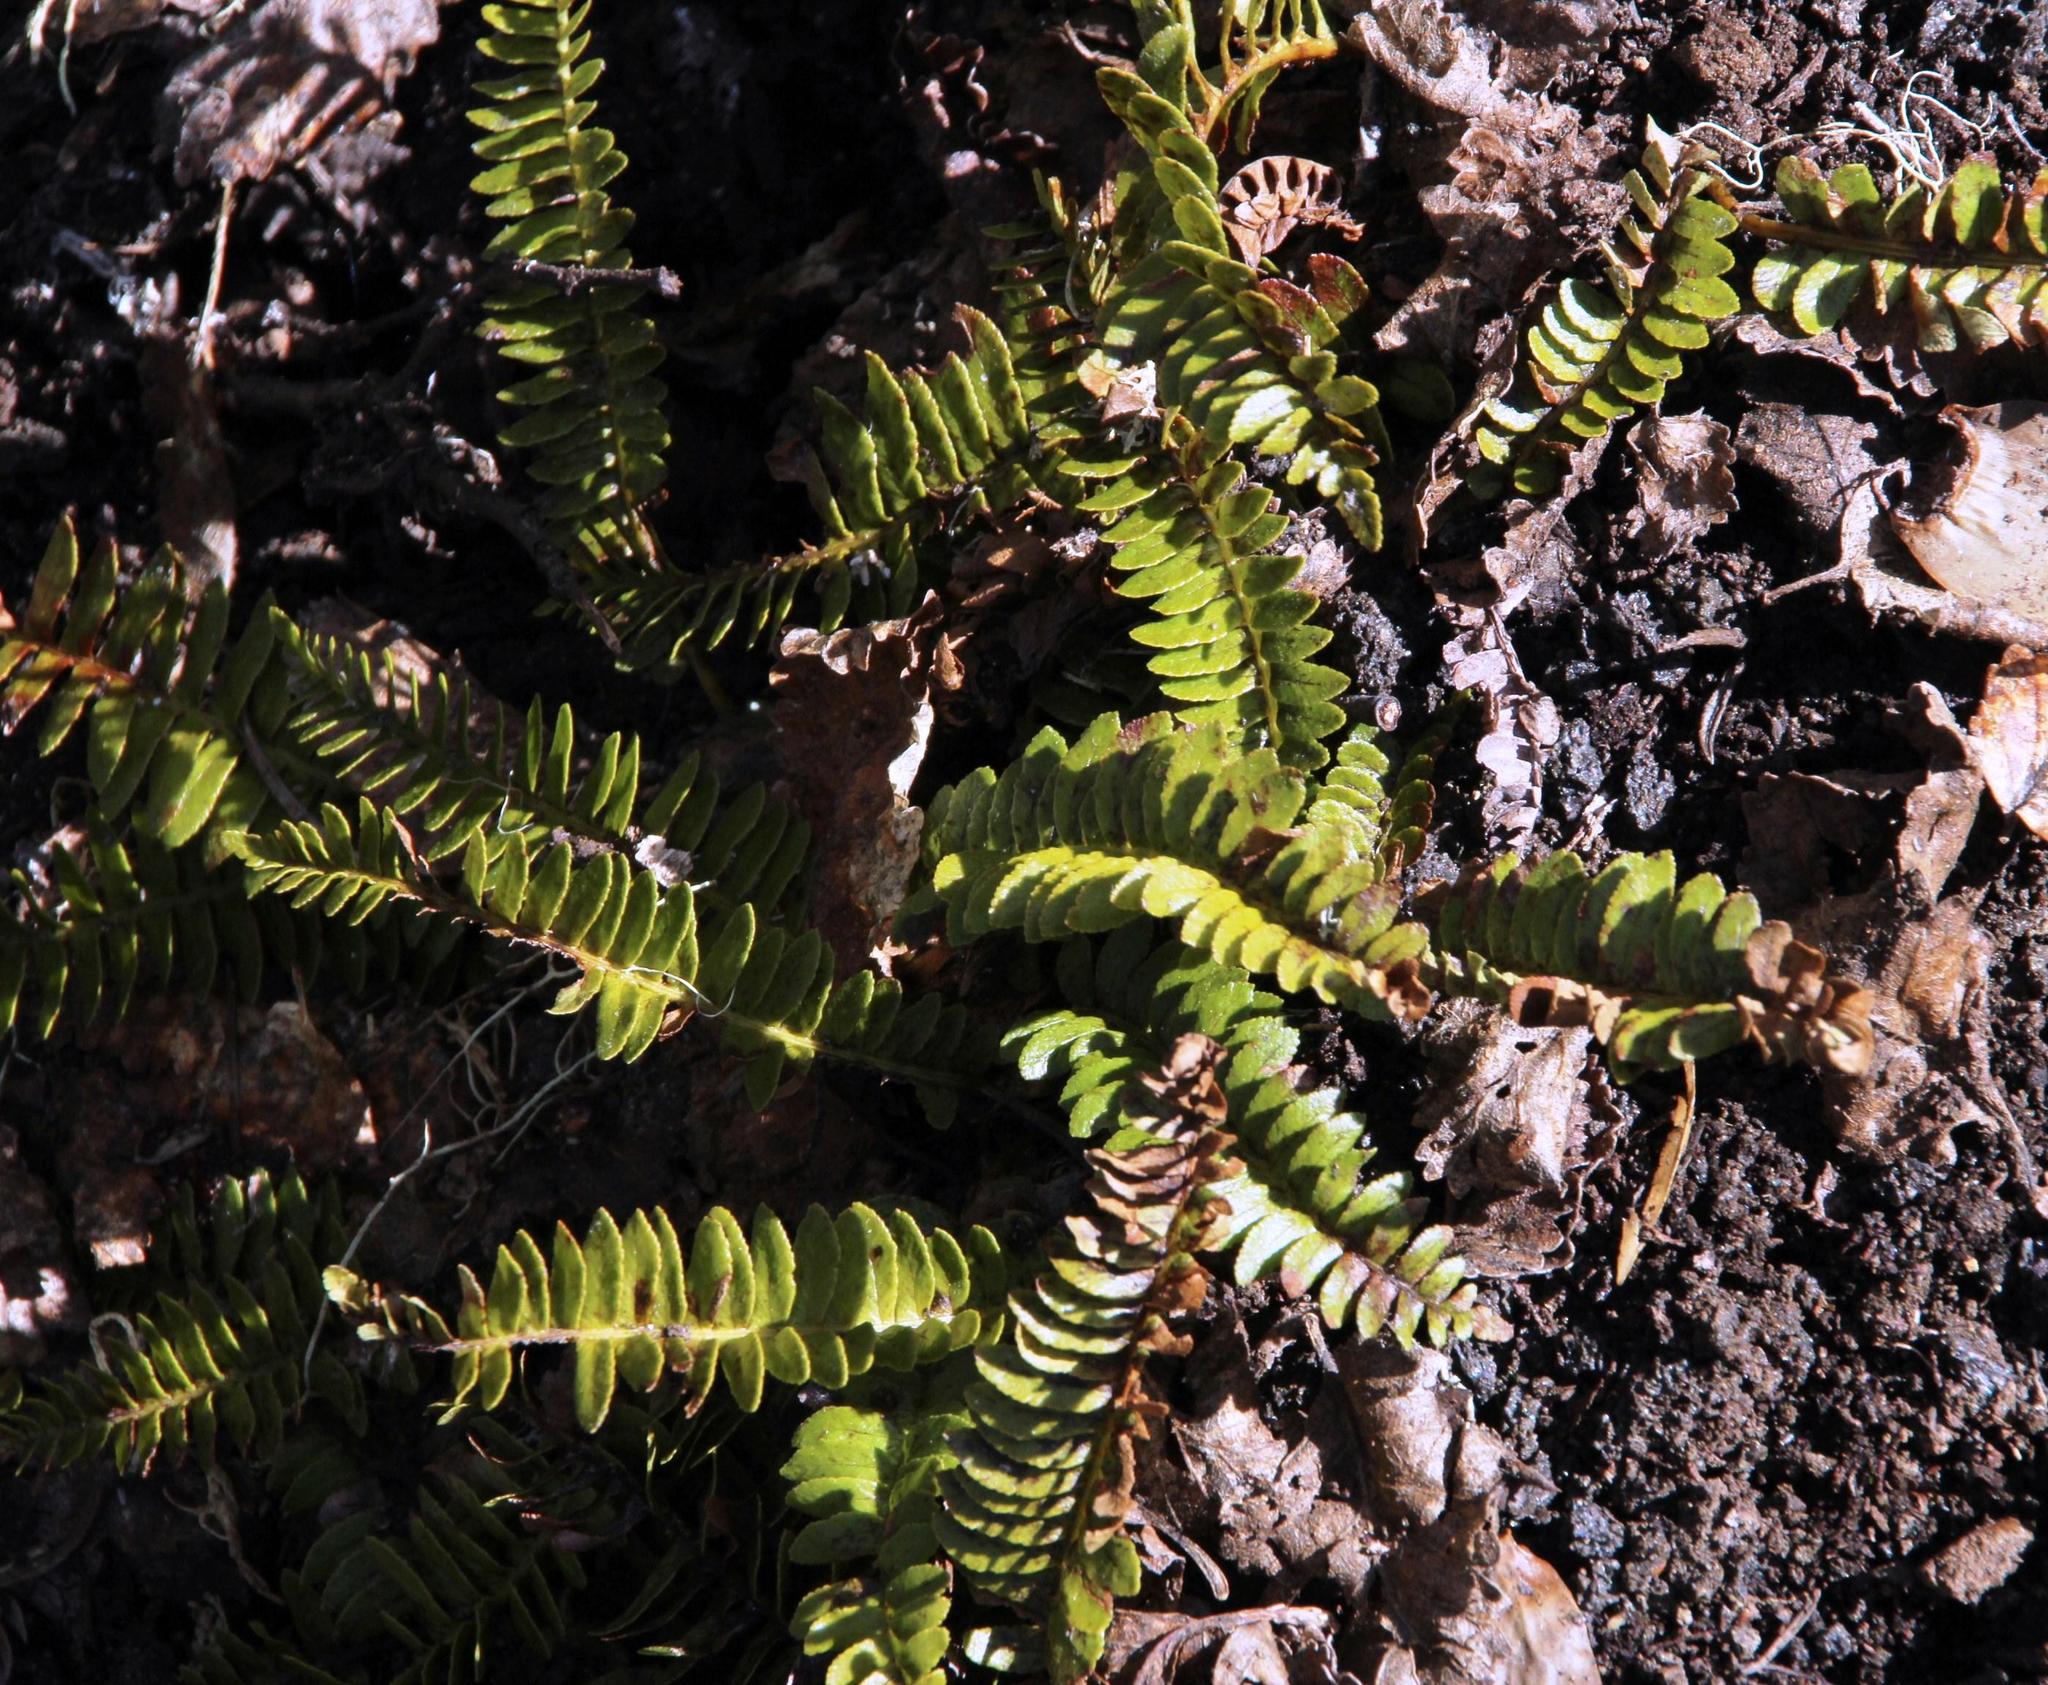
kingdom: Plantae
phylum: Tracheophyta
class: Polypodiopsida
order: Polypodiales
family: Blechnaceae
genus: Austroblechnum
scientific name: Austroblechnum microphyllum
